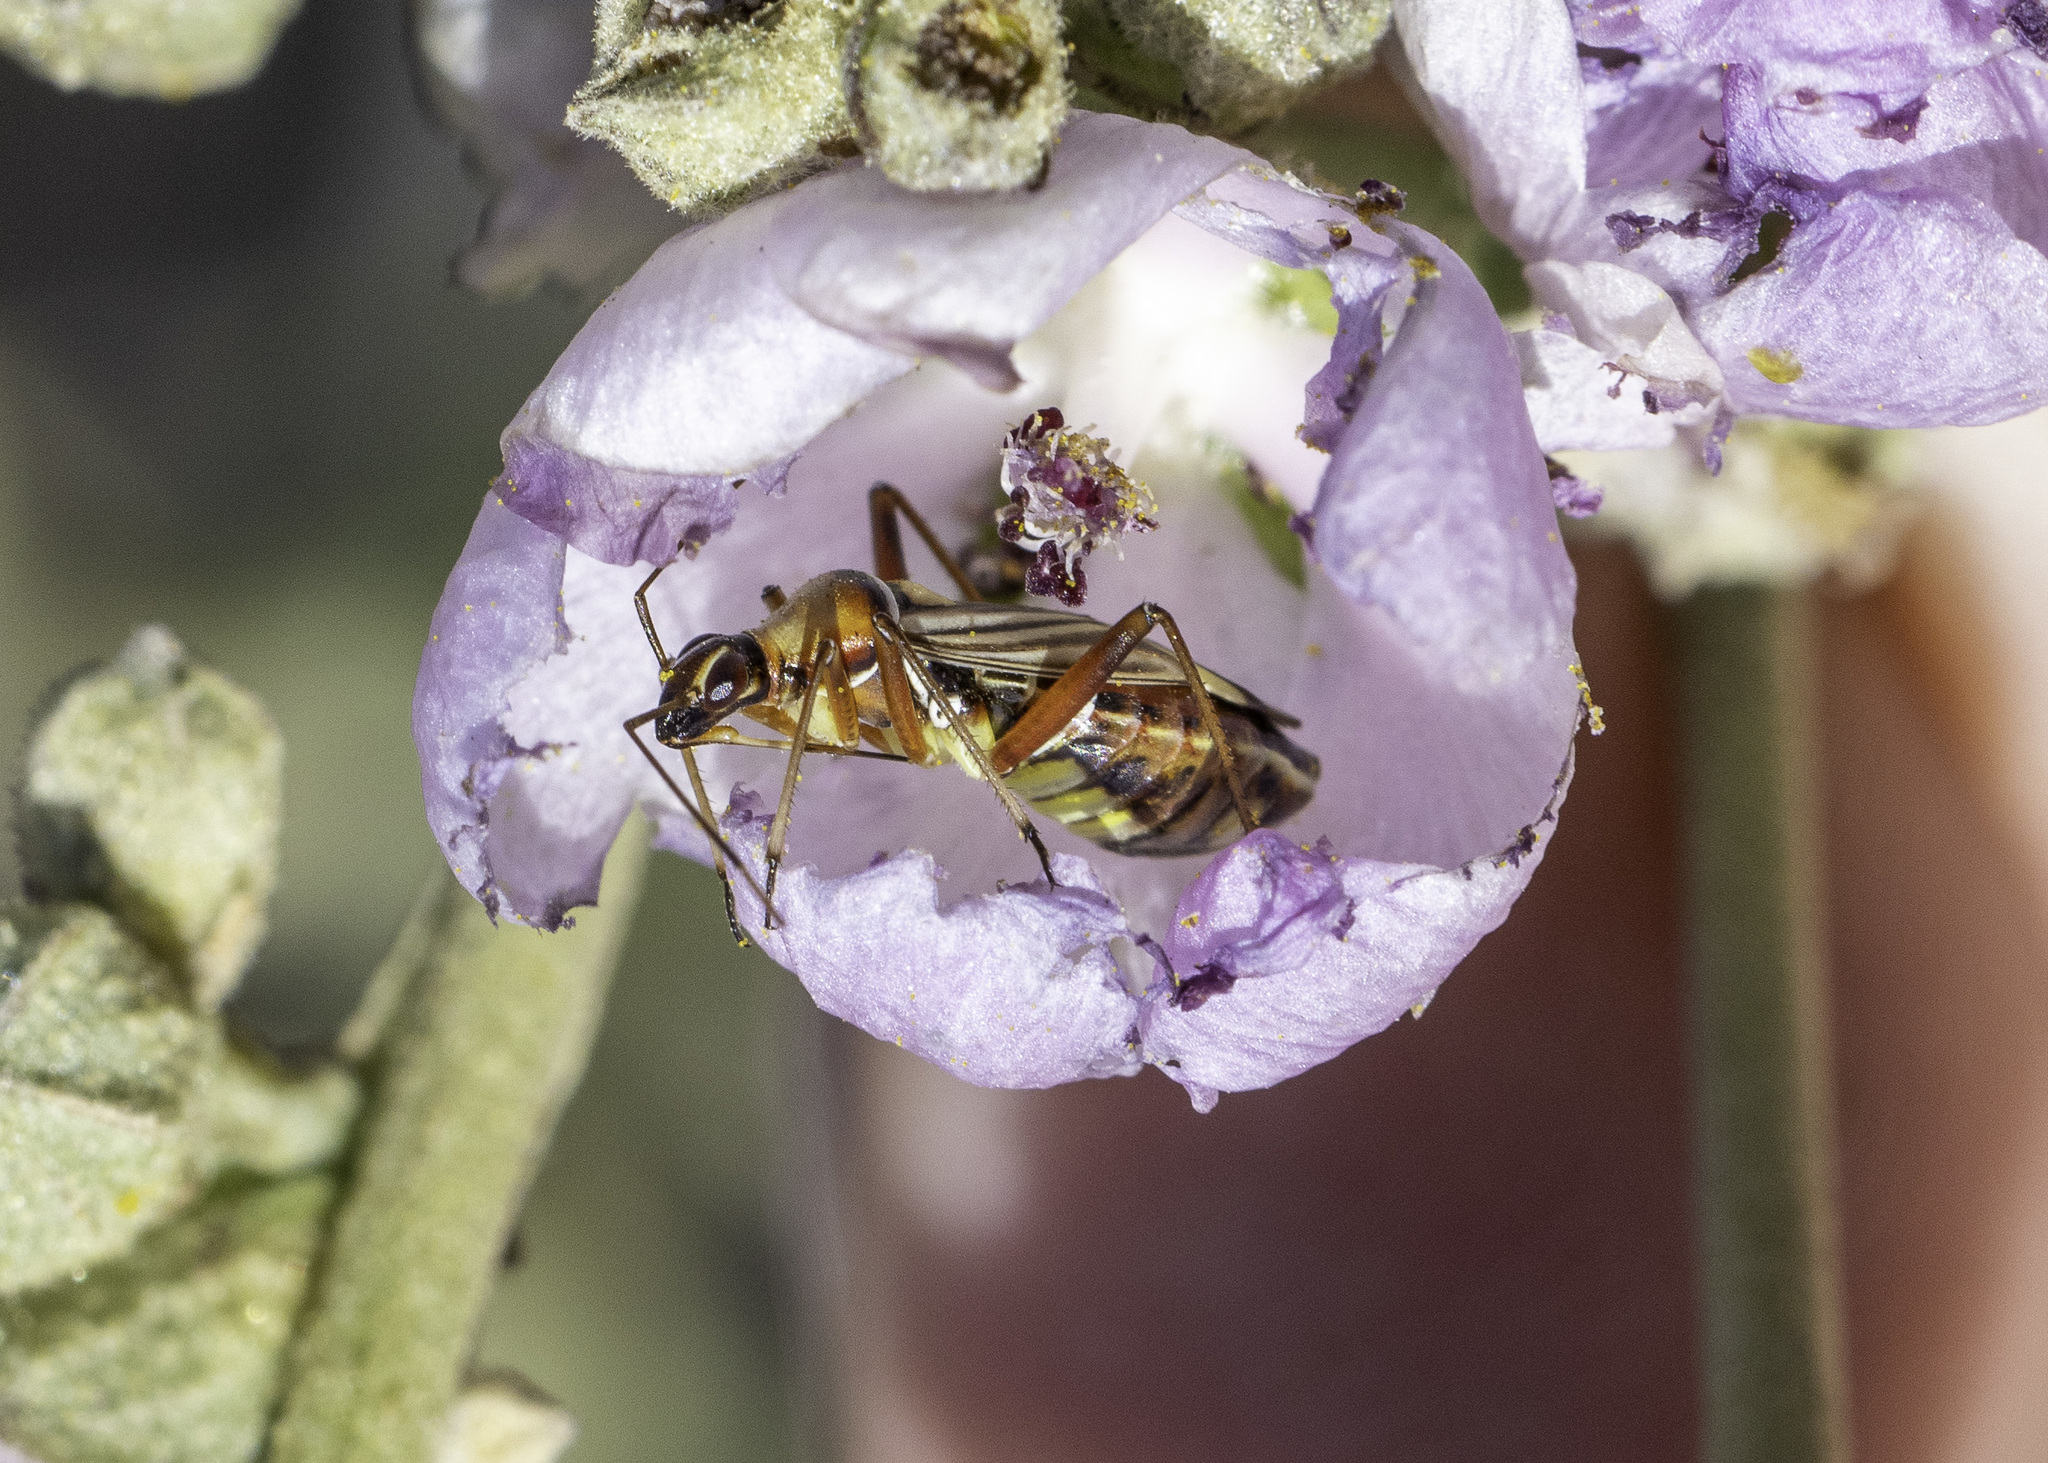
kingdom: Animalia
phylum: Arthropoda
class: Insecta
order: Hemiptera
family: Miridae
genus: Closterocoris
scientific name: Closterocoris amoenus
